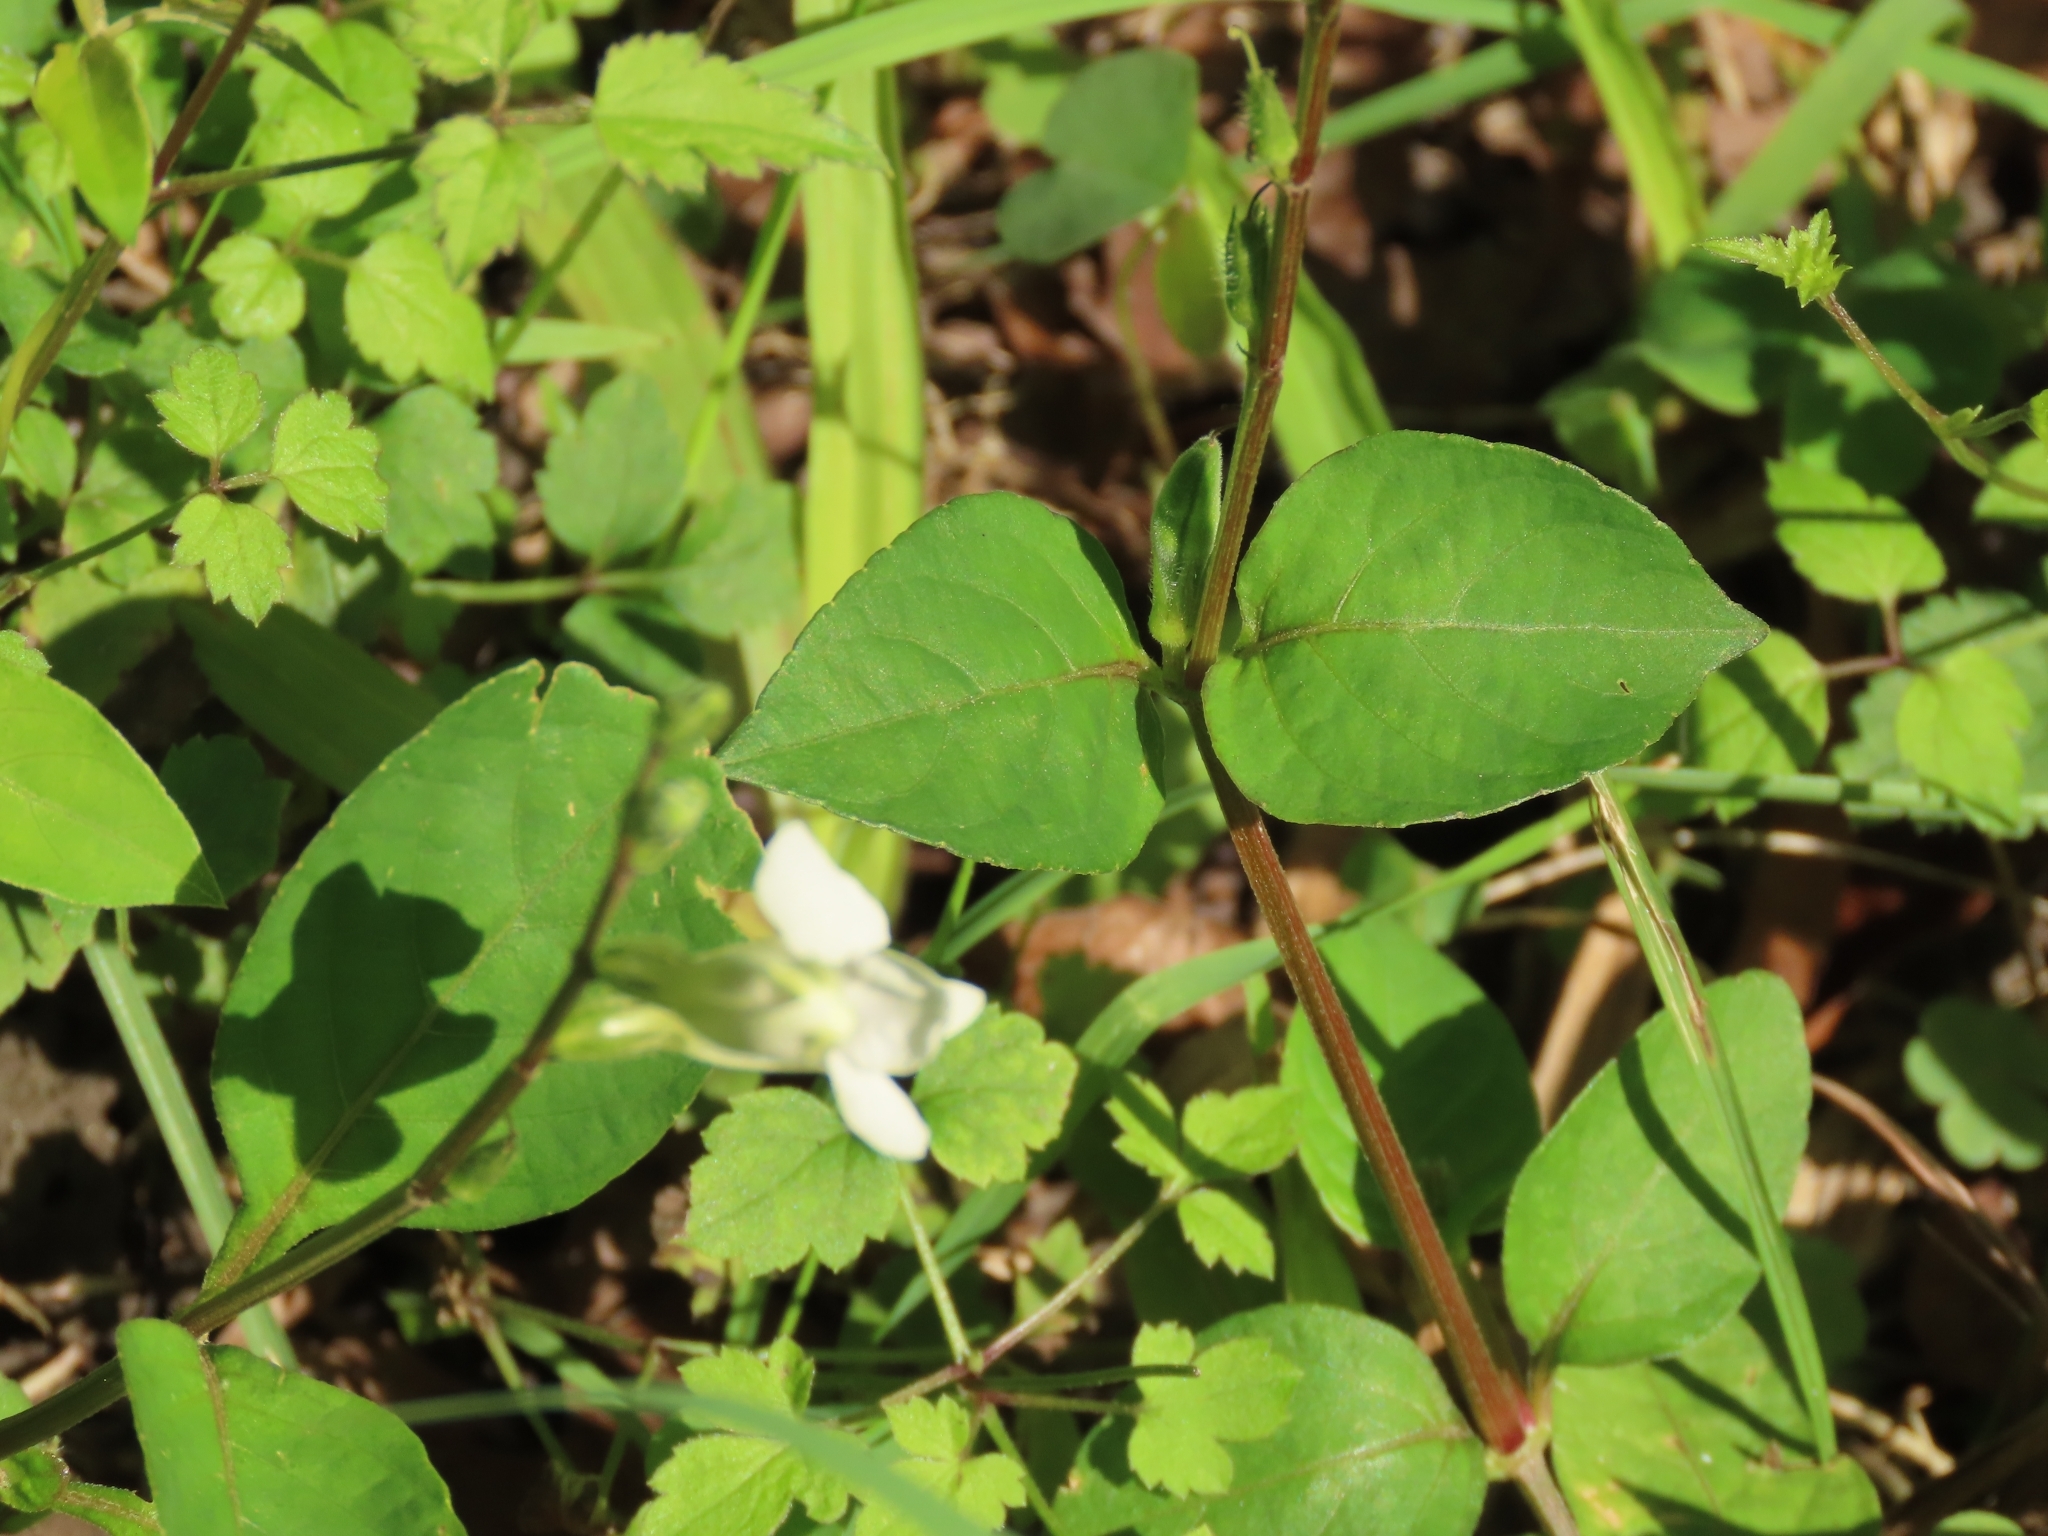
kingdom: Plantae
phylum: Tracheophyta
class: Magnoliopsida
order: Lamiales
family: Acanthaceae
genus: Asystasia
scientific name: Asystasia intrusa
